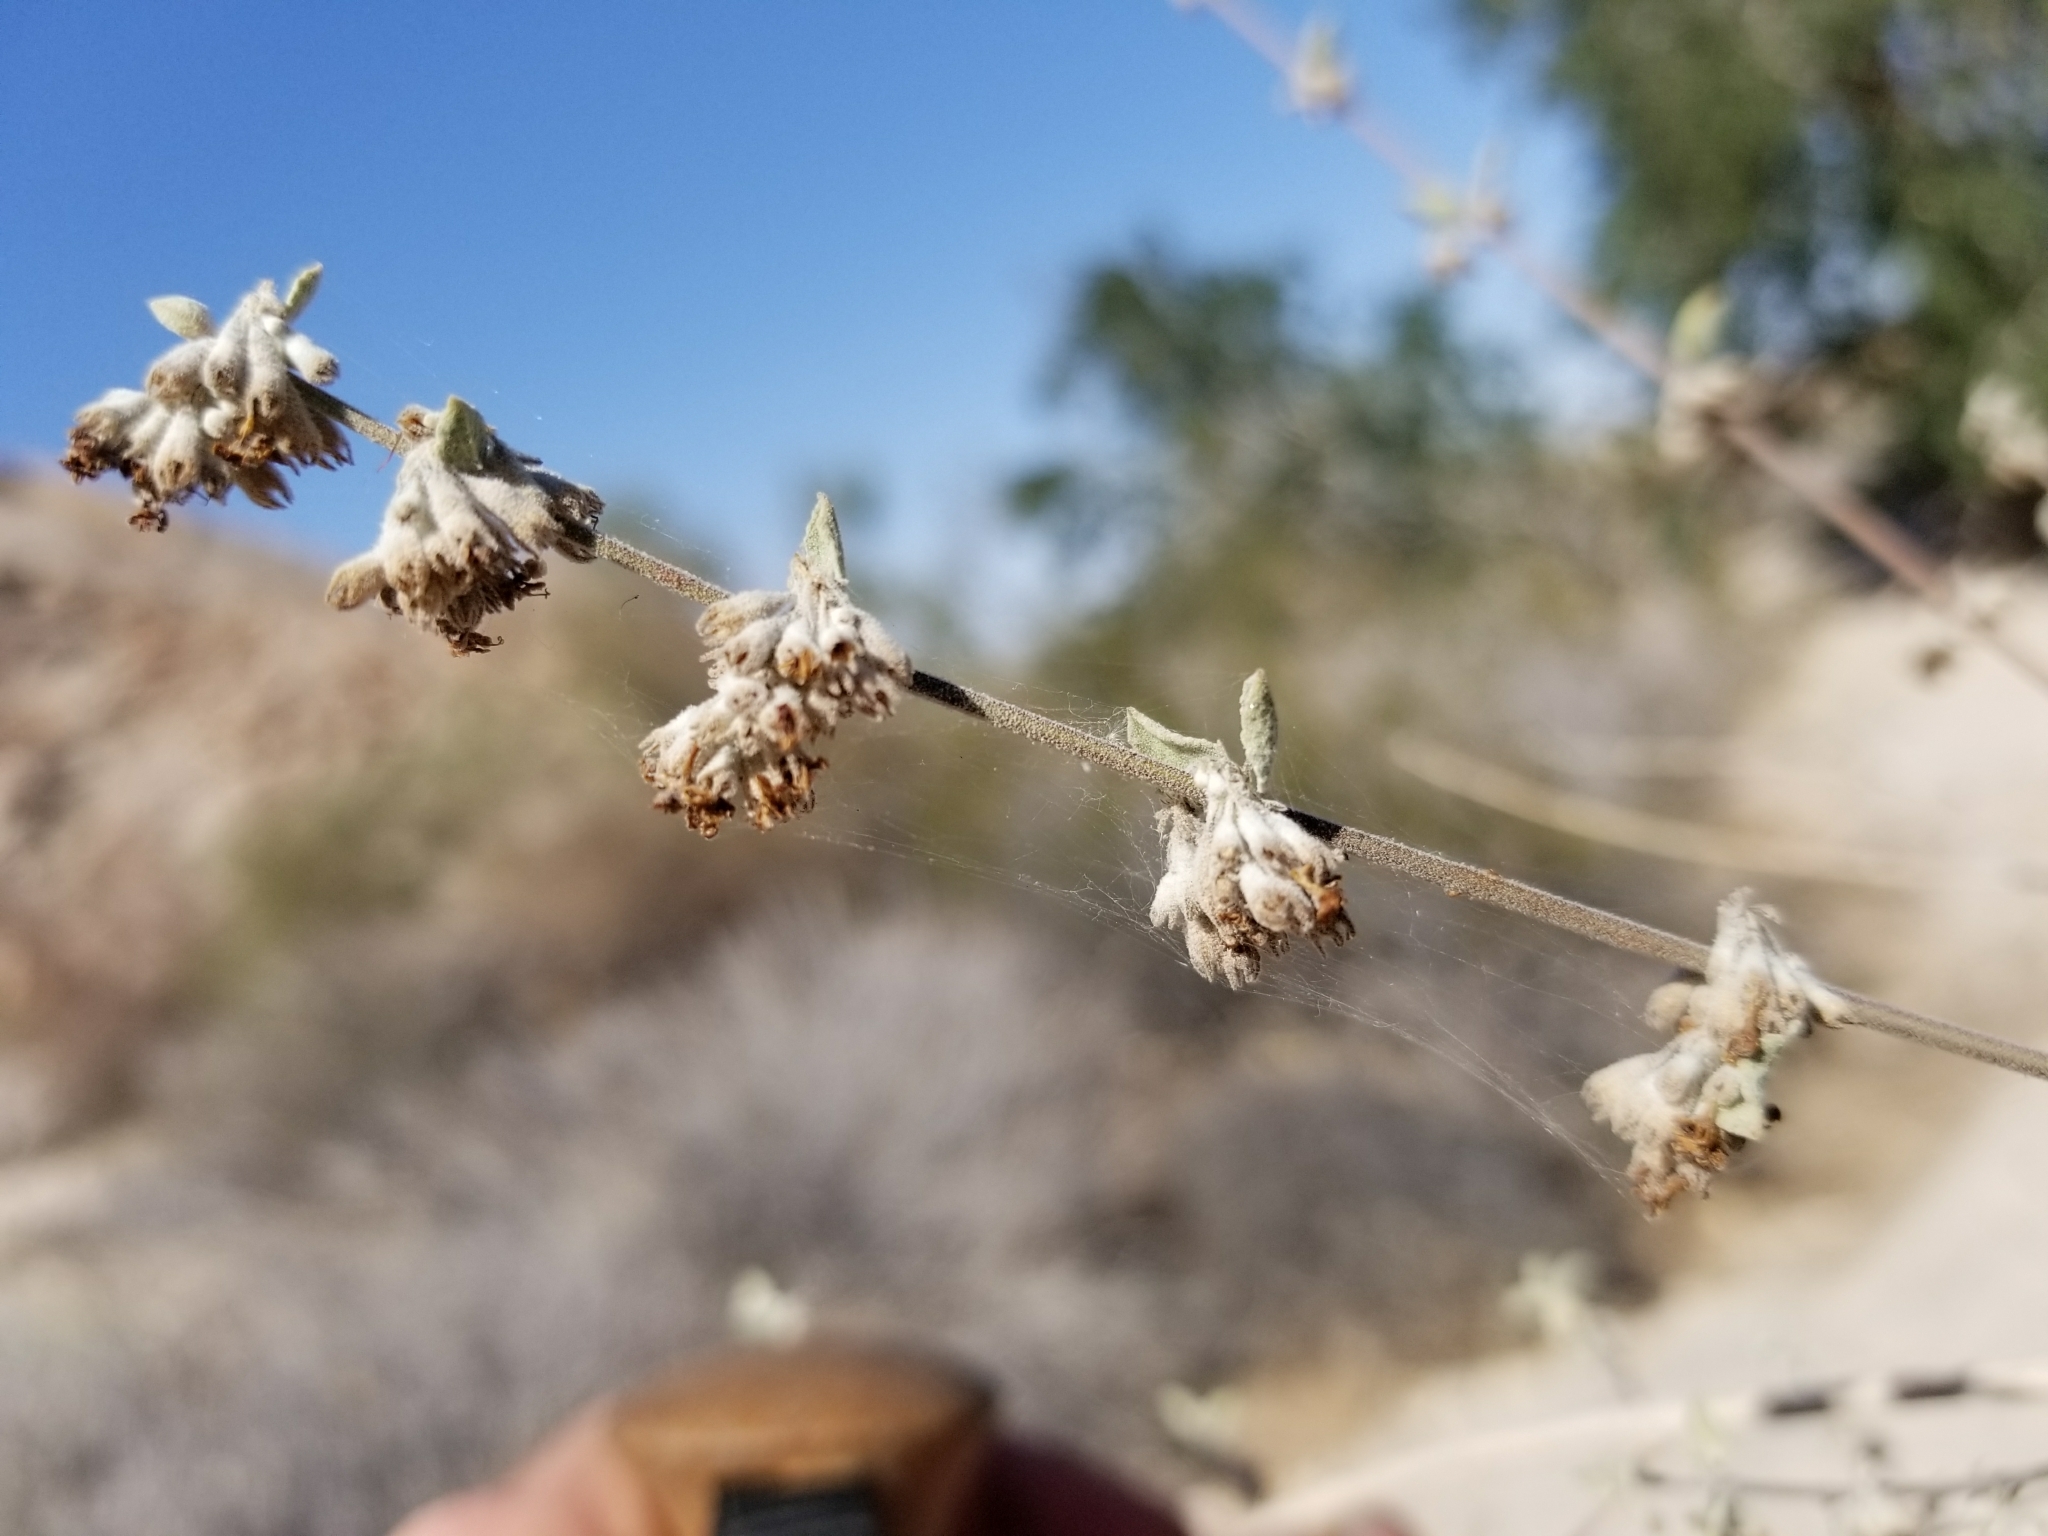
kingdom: Plantae
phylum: Tracheophyta
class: Magnoliopsida
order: Lamiales
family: Lamiaceae
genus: Condea
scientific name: Condea emoryi
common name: Chia
